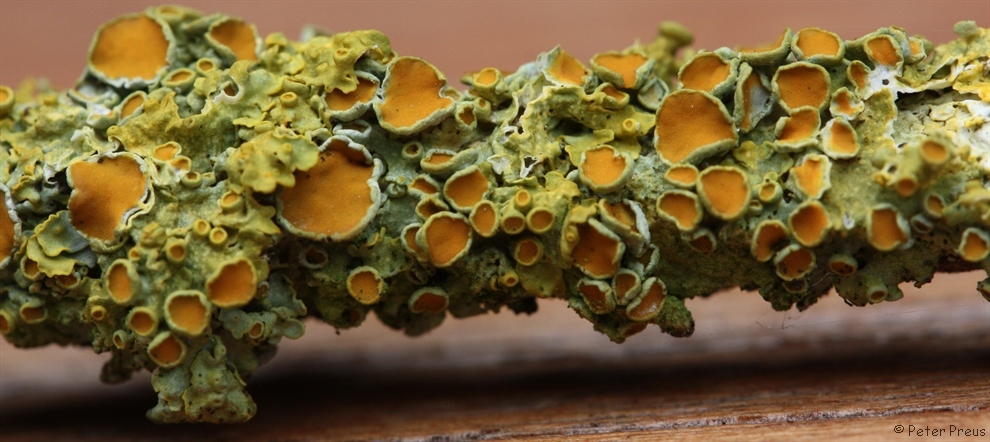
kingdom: Fungi
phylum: Ascomycota
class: Lecanoromycetes
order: Teloschistales
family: Teloschistaceae
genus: Xanthoria
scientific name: Xanthoria parietina
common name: Common orange lichen
